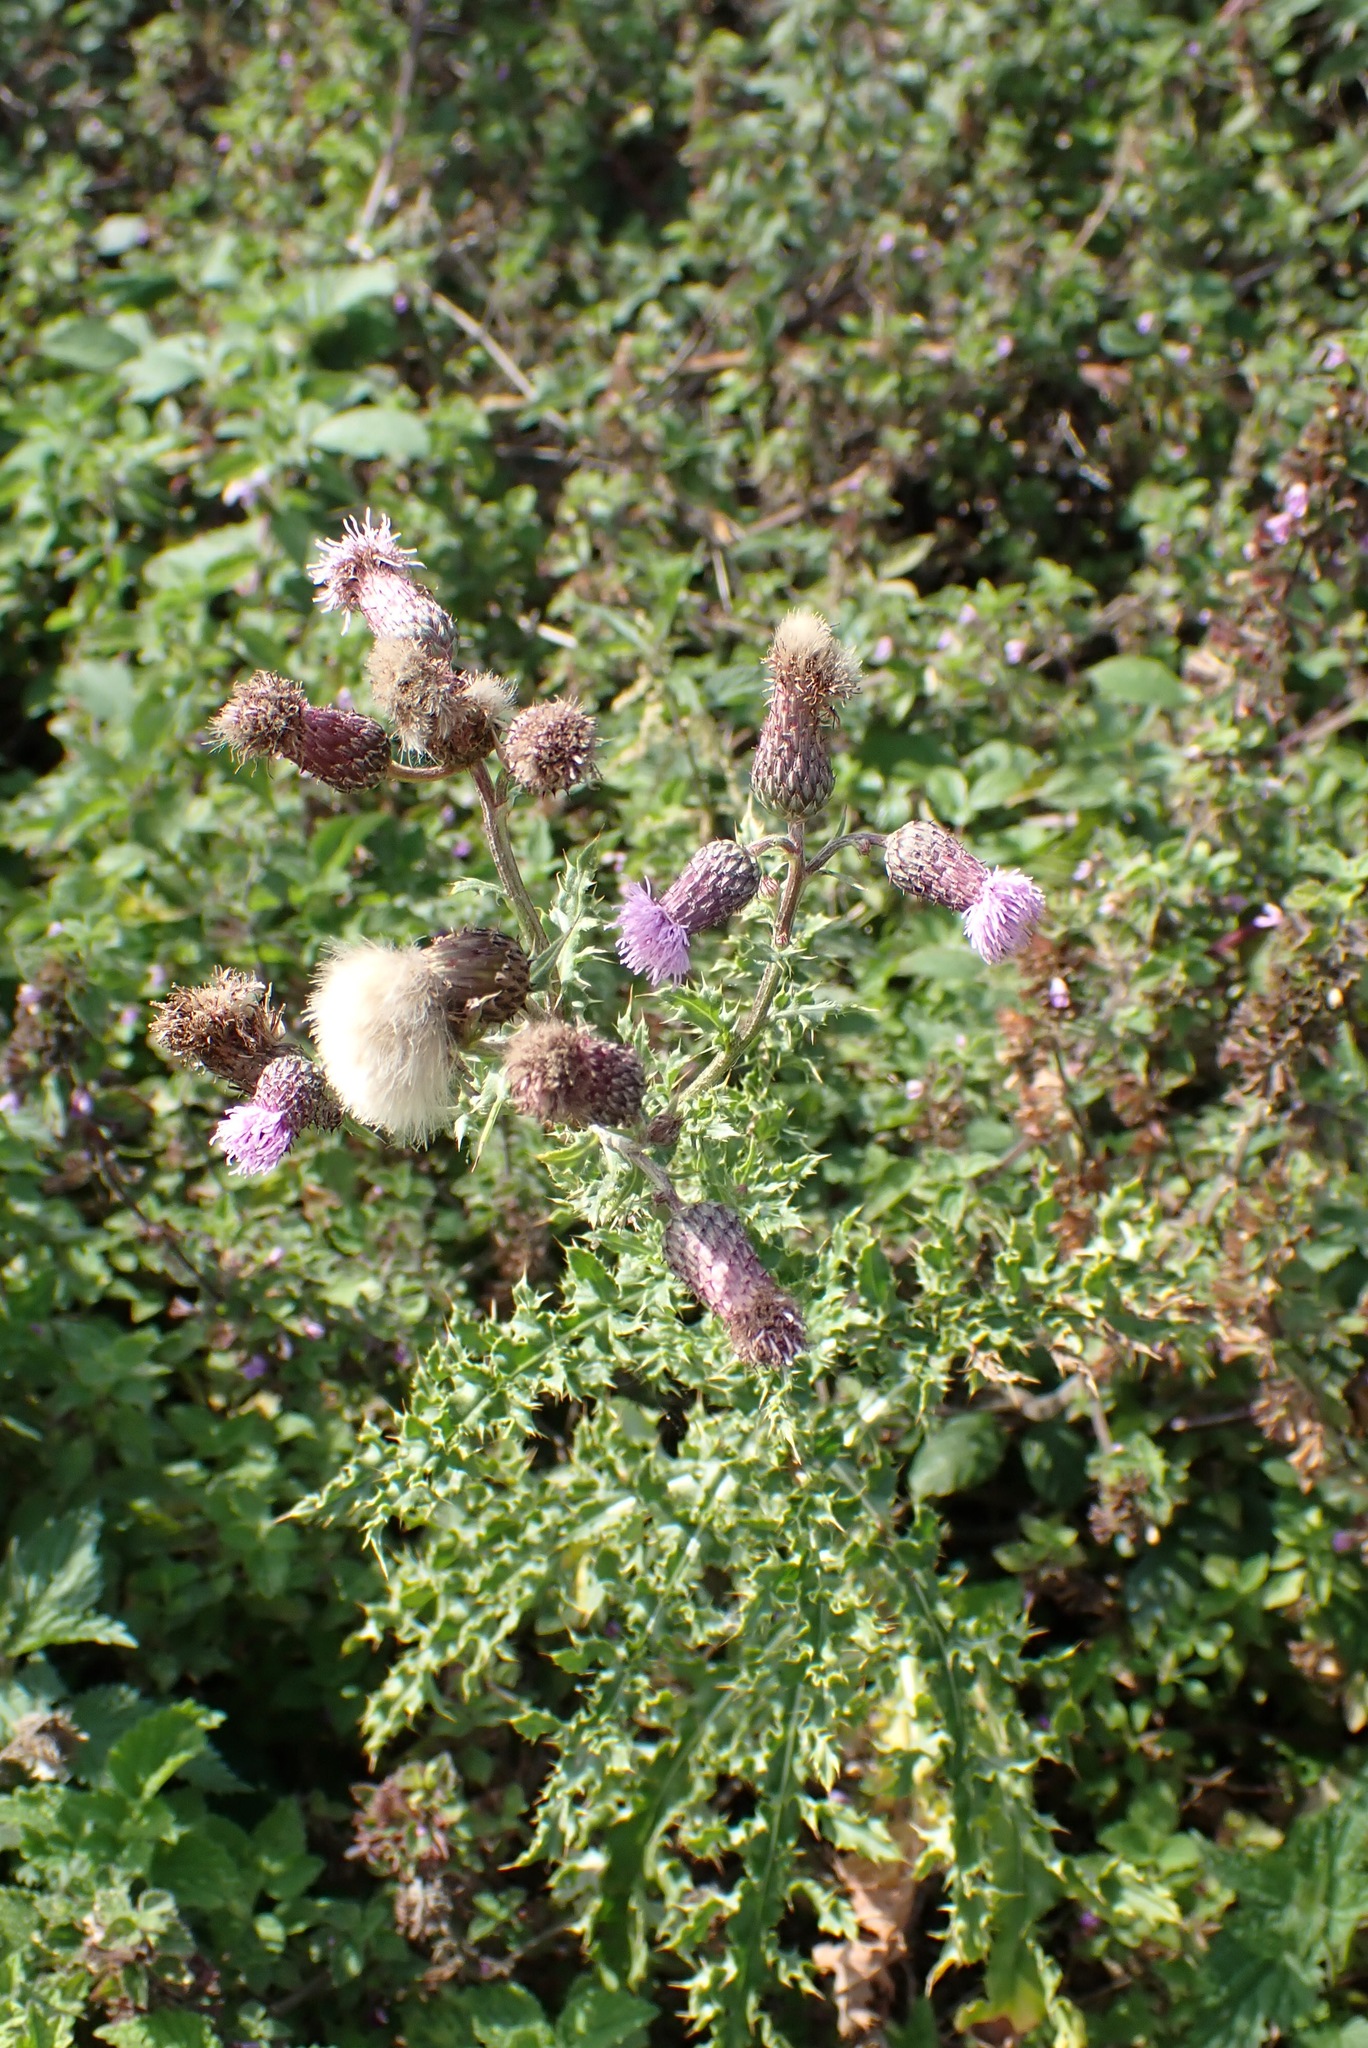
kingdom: Plantae
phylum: Tracheophyta
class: Magnoliopsida
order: Asterales
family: Asteraceae
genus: Cirsium
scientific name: Cirsium arvense
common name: Creeping thistle
